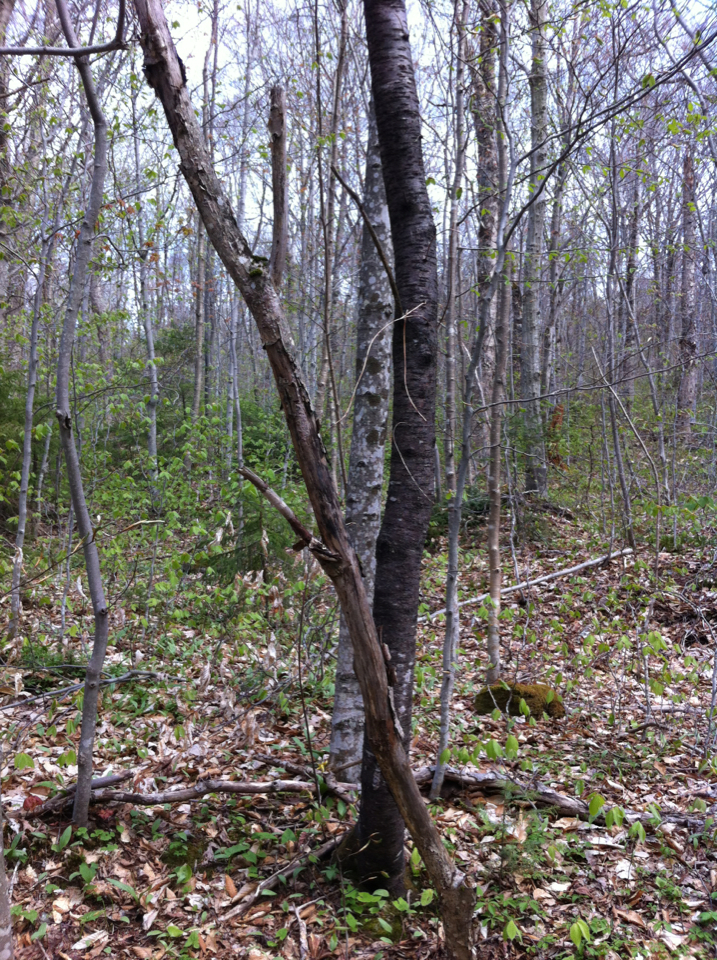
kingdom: Plantae
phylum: Tracheophyta
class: Magnoliopsida
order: Rosales
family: Rosaceae
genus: Prunus
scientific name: Prunus pensylvanica
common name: Pin cherry
